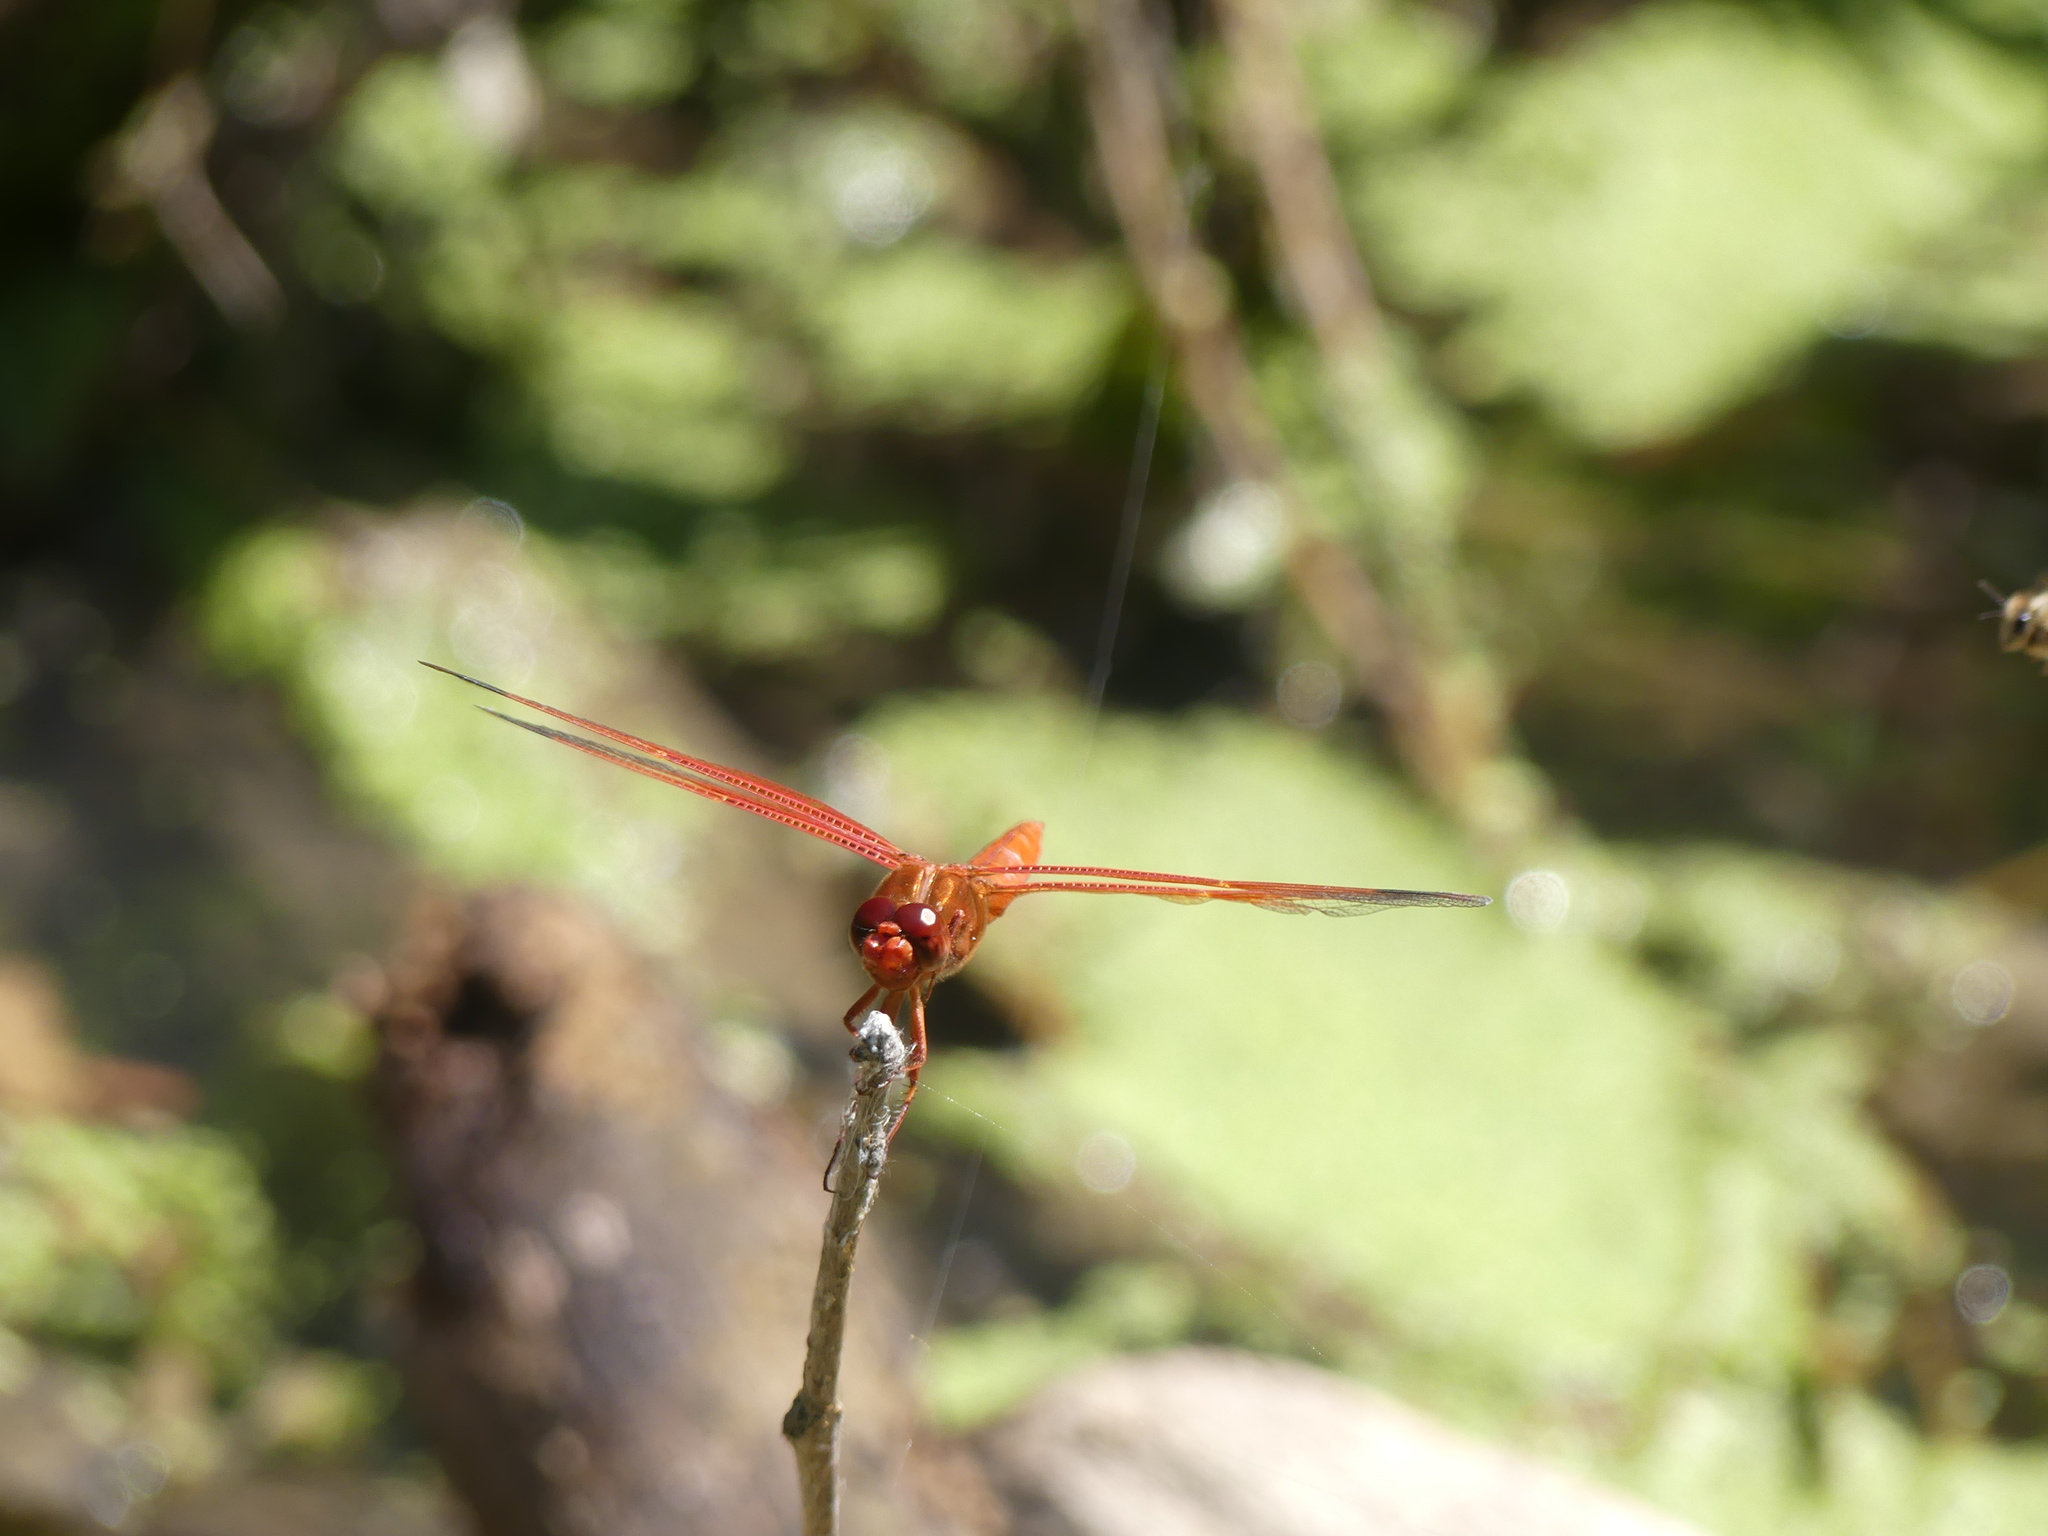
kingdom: Animalia
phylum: Arthropoda
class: Insecta
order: Odonata
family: Libellulidae
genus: Libellula
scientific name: Libellula saturata
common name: Flame skimmer
